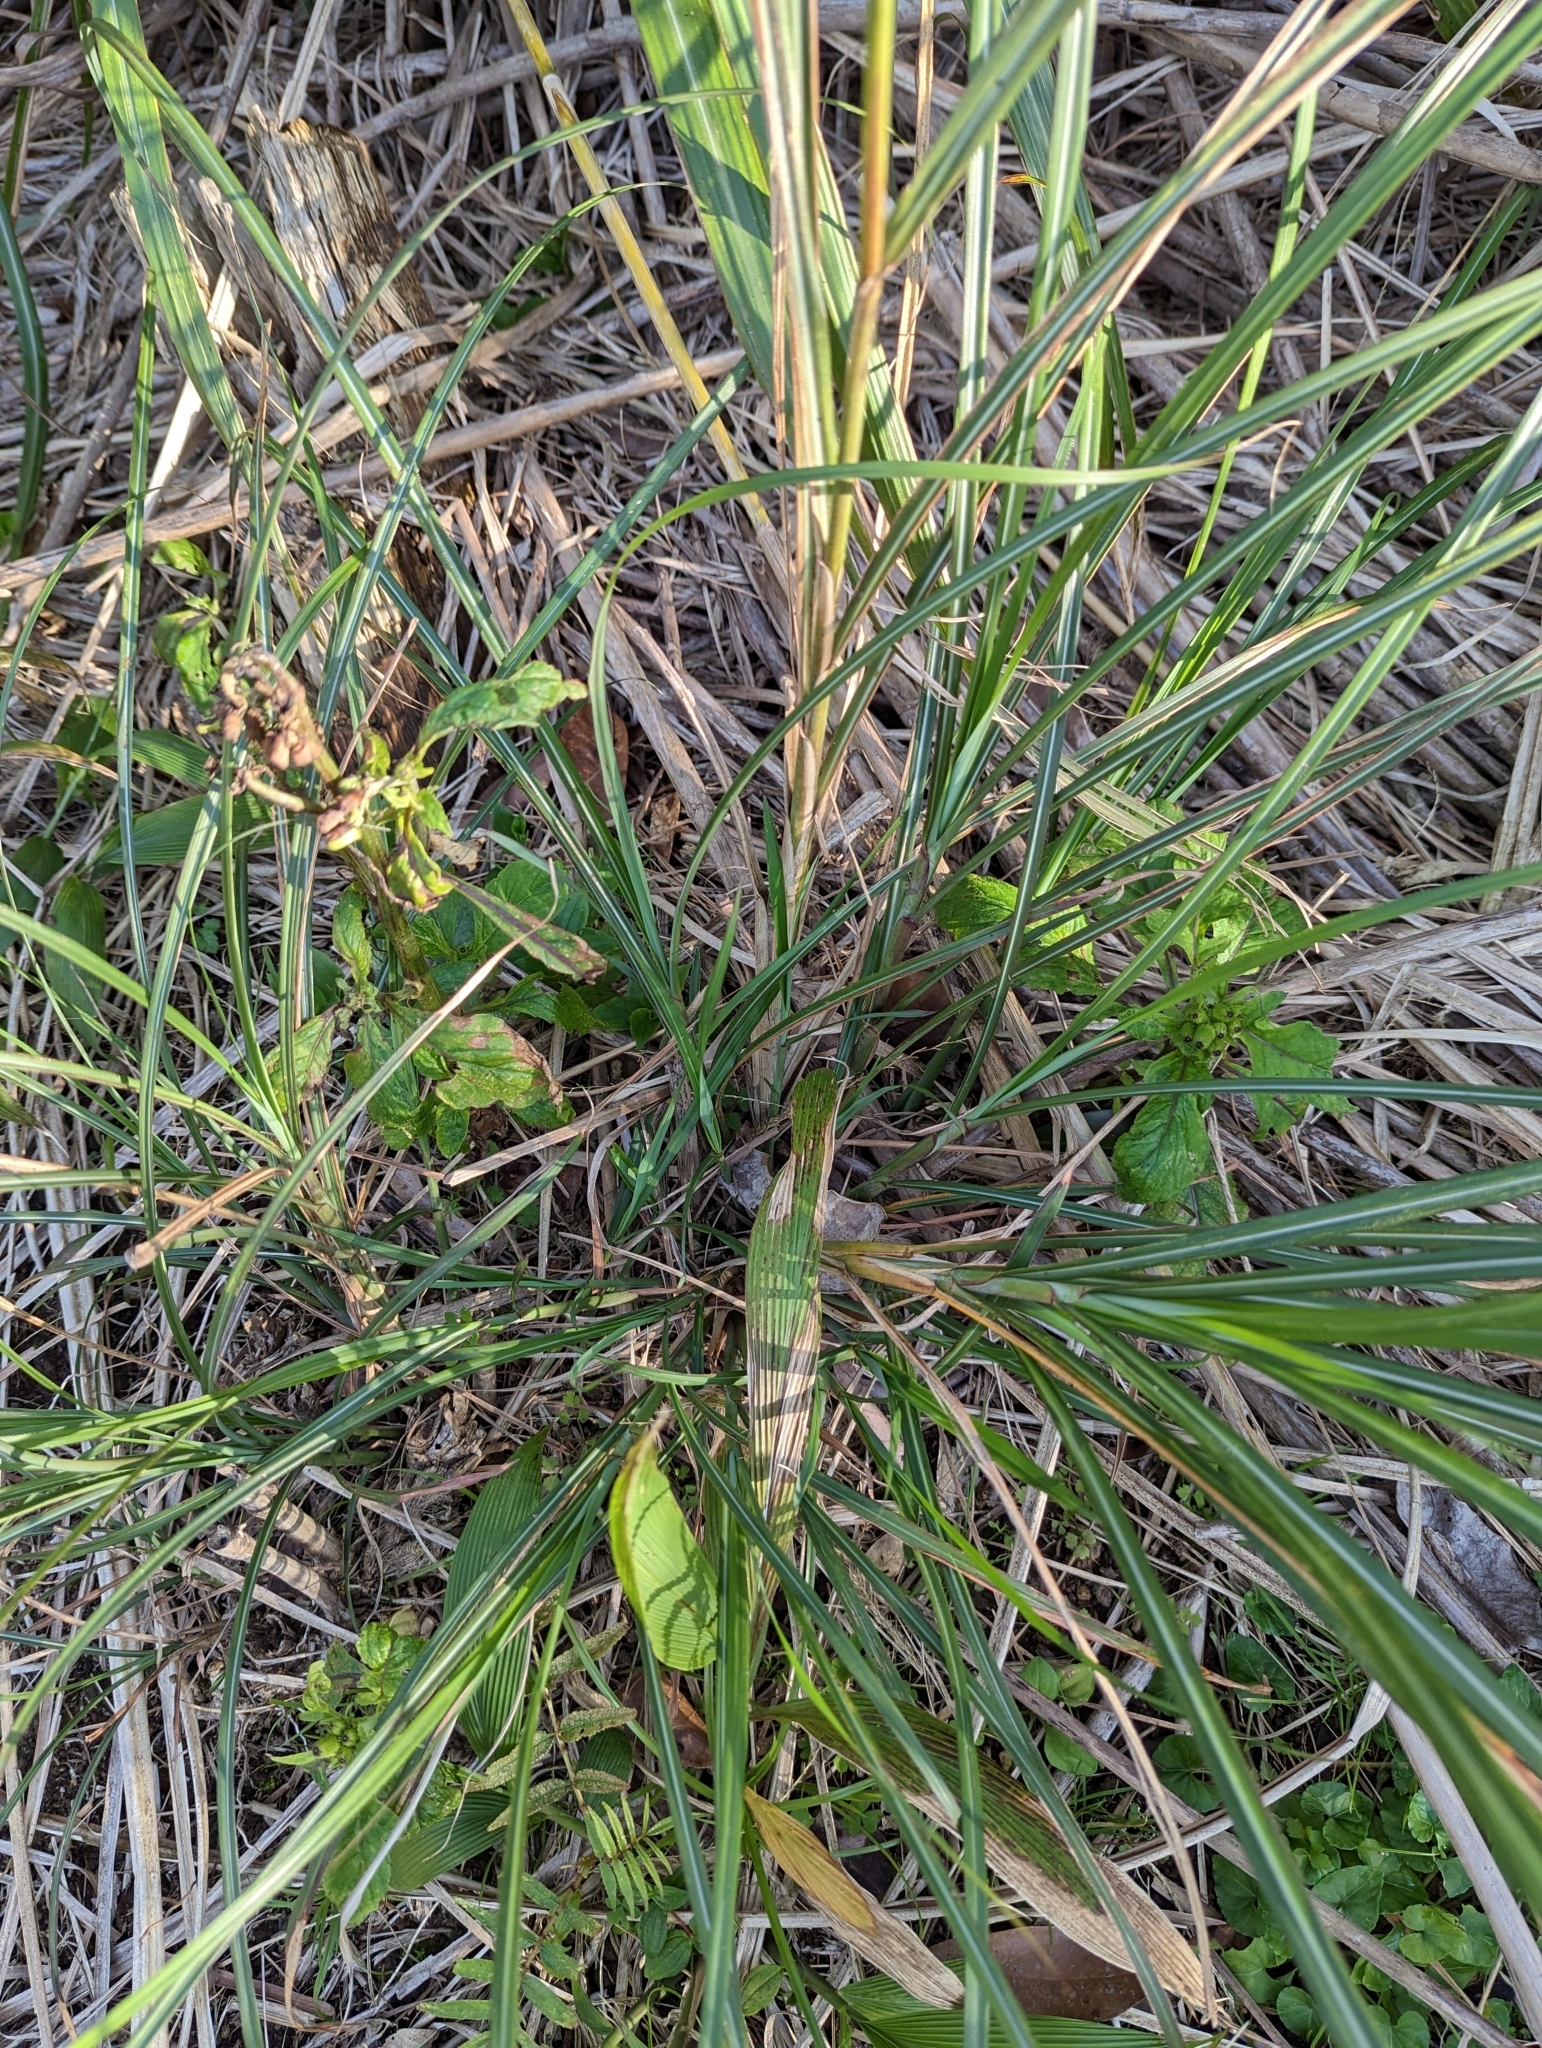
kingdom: Plantae
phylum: Tracheophyta
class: Liliopsida
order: Poales
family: Poaceae
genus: Miscanthus
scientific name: Miscanthus sinensis
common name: Chinese silvergrass
